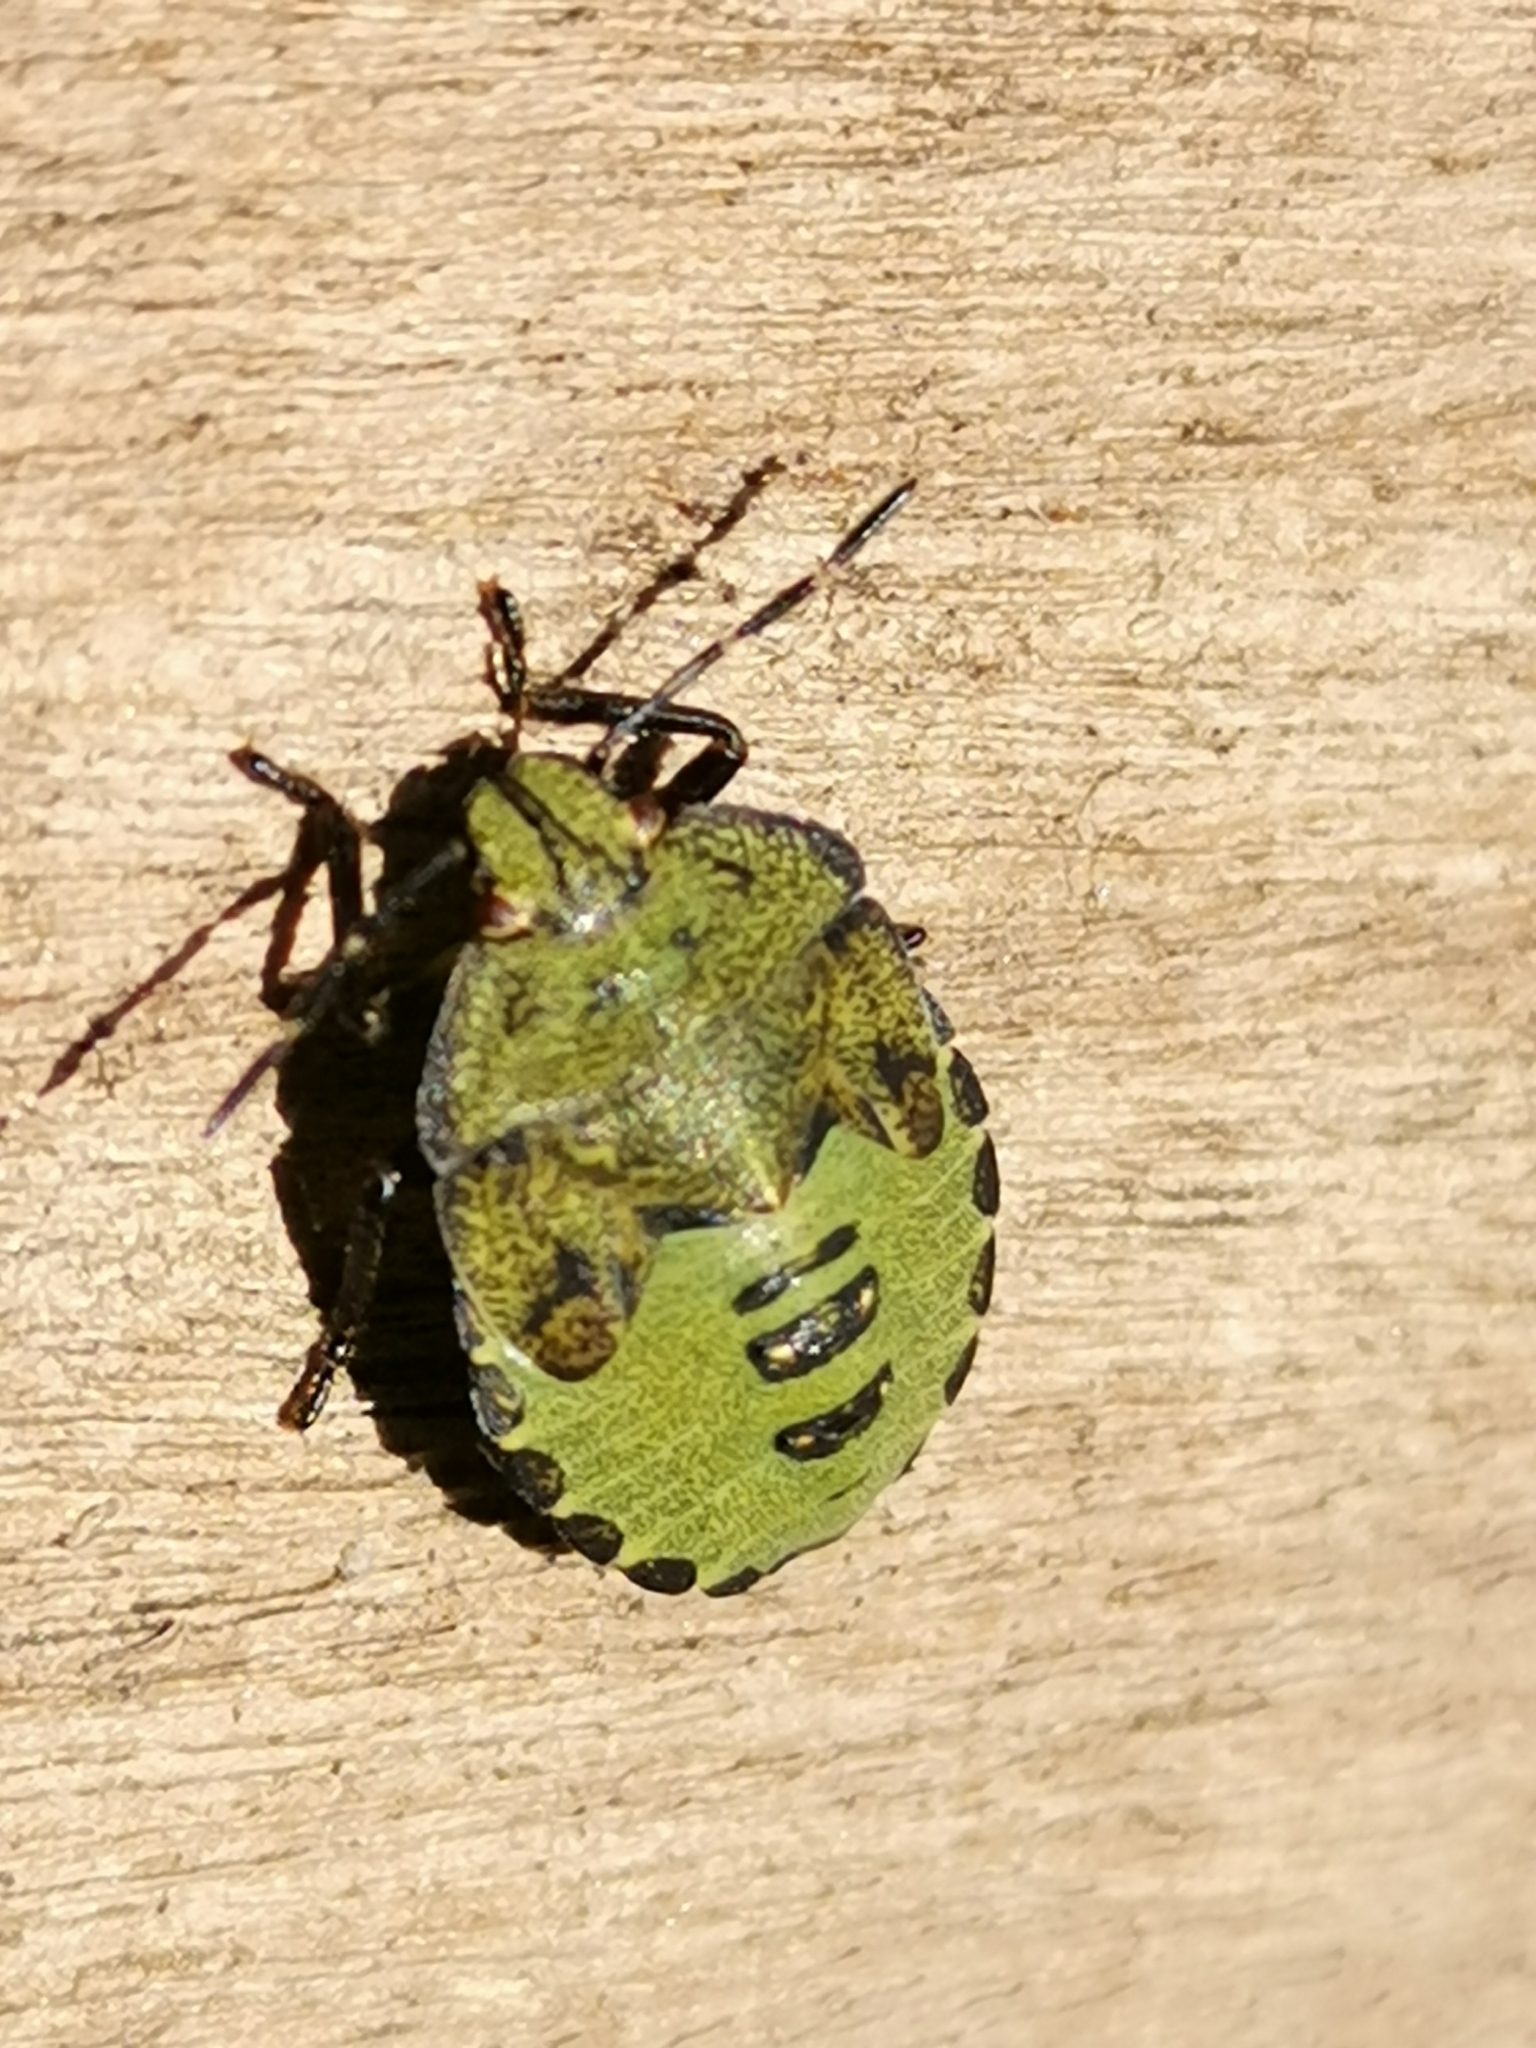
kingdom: Animalia
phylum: Arthropoda
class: Insecta
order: Hemiptera
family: Pentatomidae
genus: Palomena
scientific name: Palomena prasina
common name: Green shieldbug
